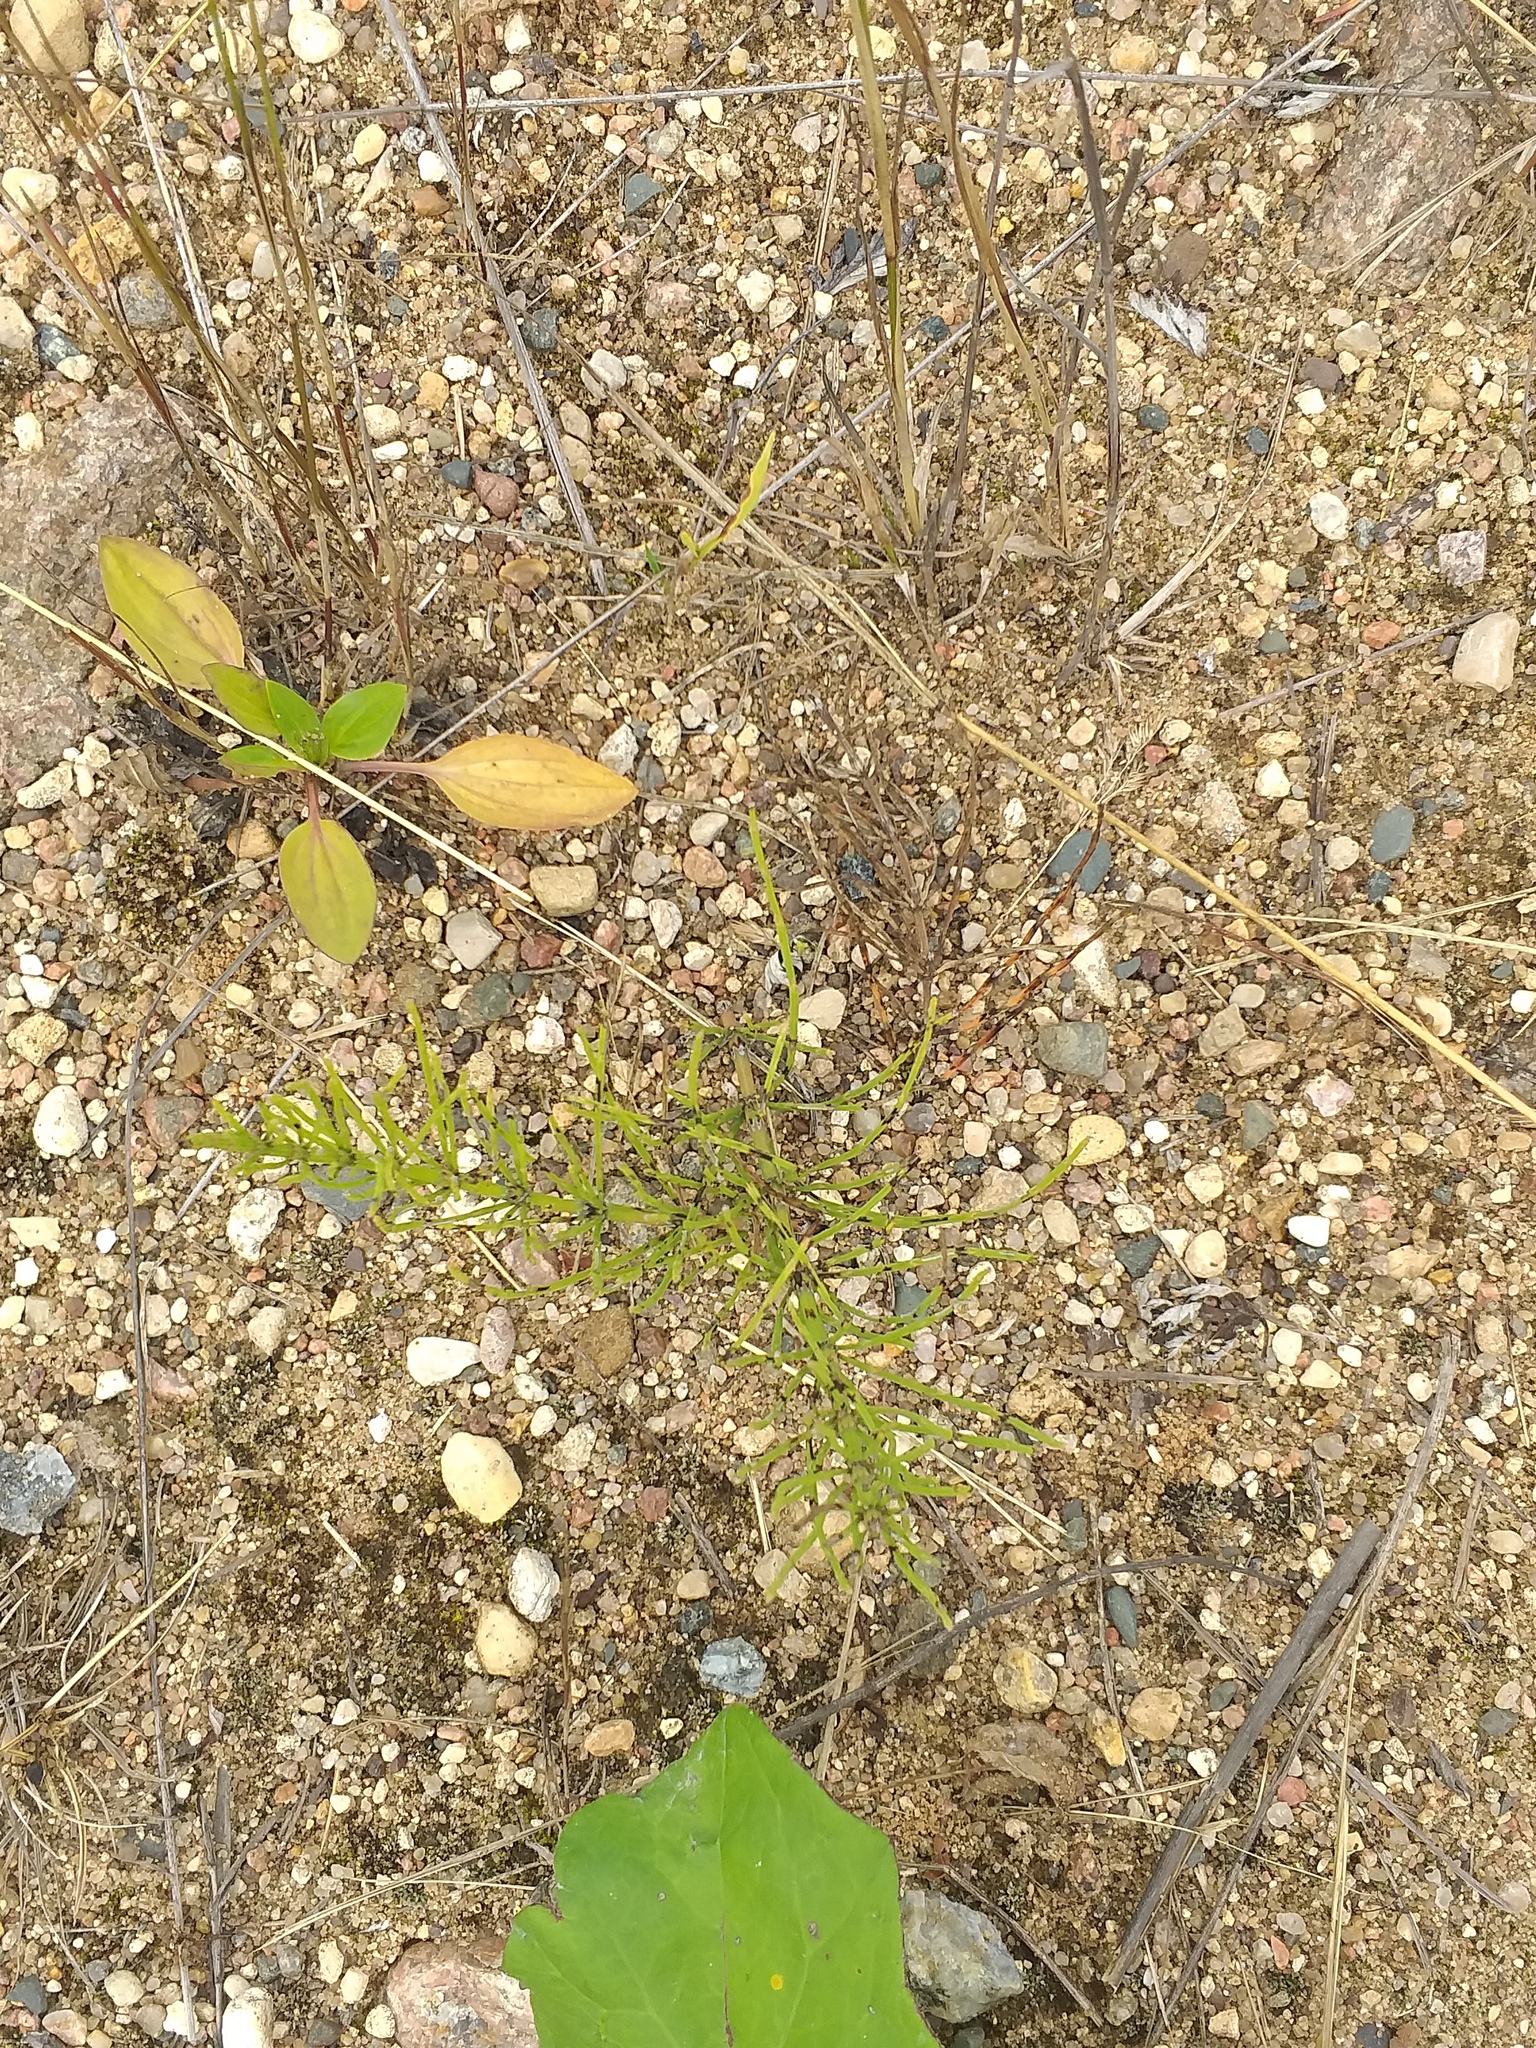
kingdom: Plantae
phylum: Tracheophyta
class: Polypodiopsida
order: Equisetales
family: Equisetaceae
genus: Equisetum
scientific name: Equisetum arvense
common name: Field horsetail
